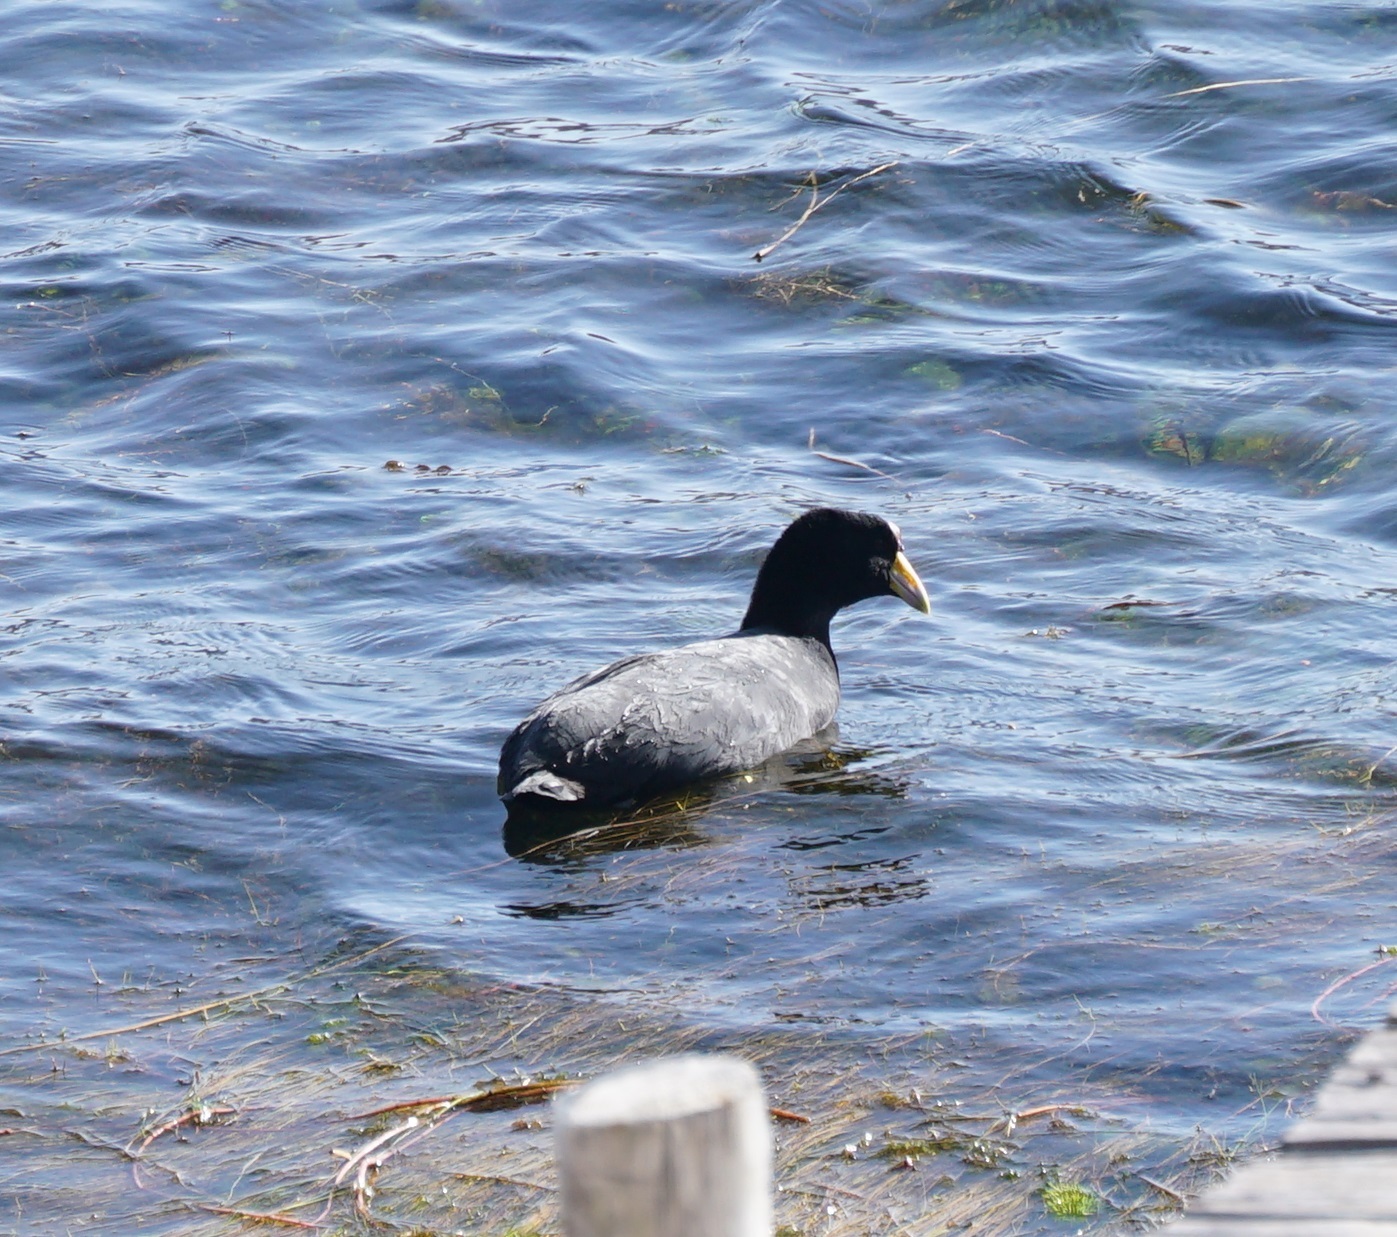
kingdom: Animalia
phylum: Chordata
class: Aves
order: Gruiformes
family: Rallidae
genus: Fulica
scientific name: Fulica ardesiaca
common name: Andean coot
